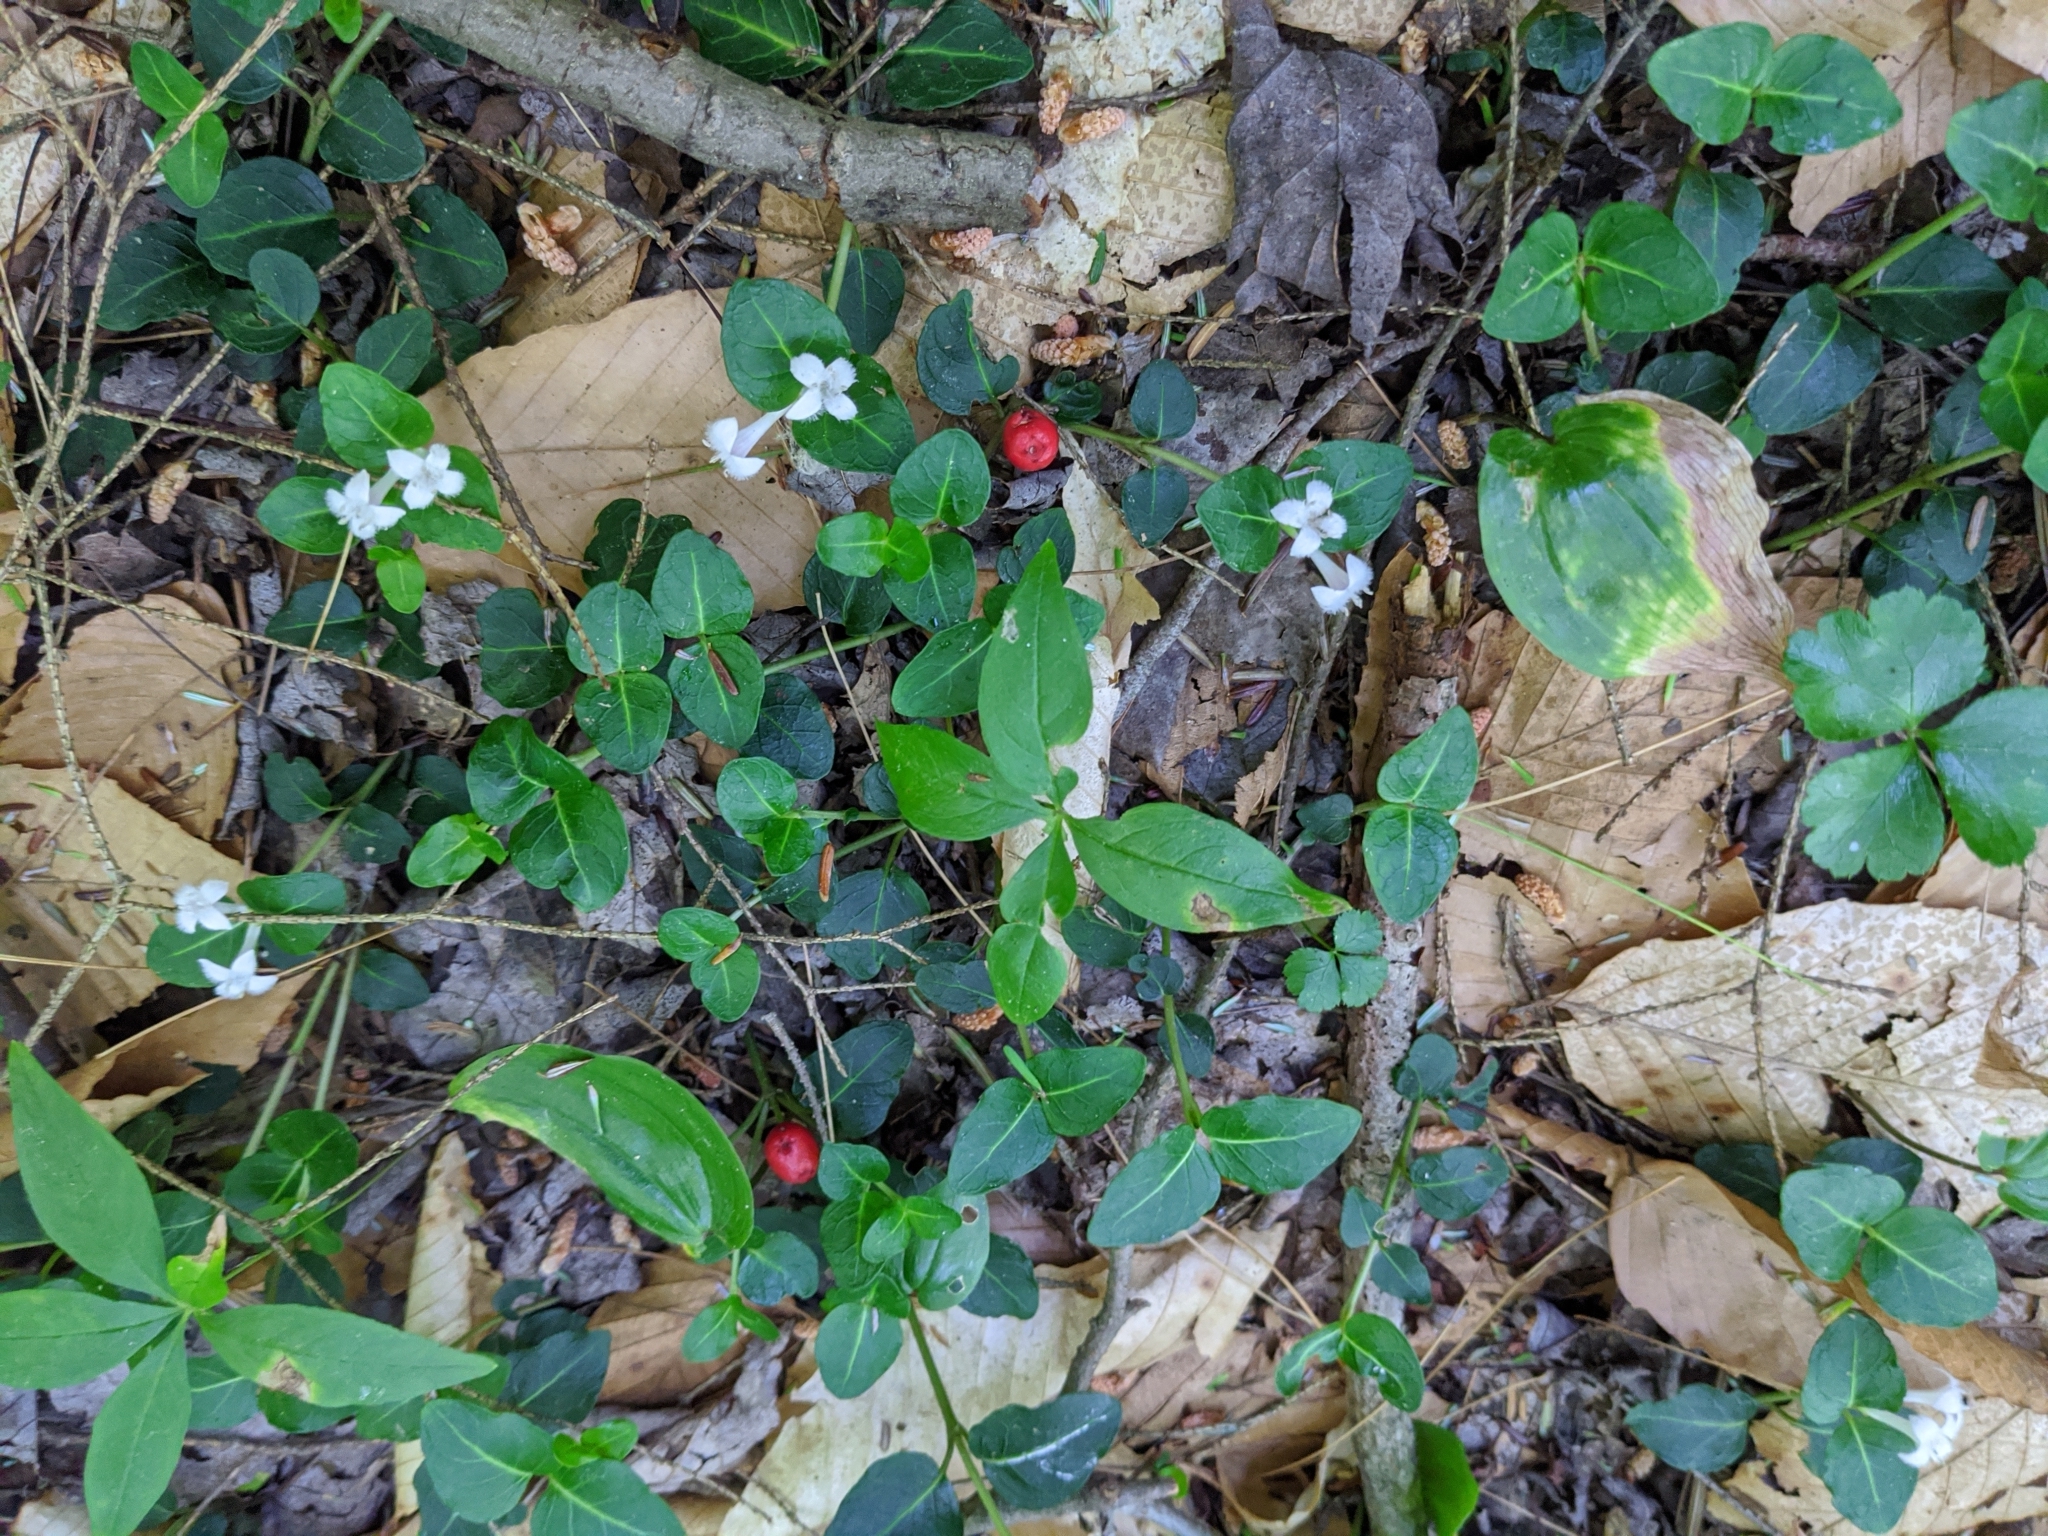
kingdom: Plantae
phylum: Tracheophyta
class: Magnoliopsida
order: Gentianales
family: Rubiaceae
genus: Mitchella
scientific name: Mitchella repens
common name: Partridge-berry
